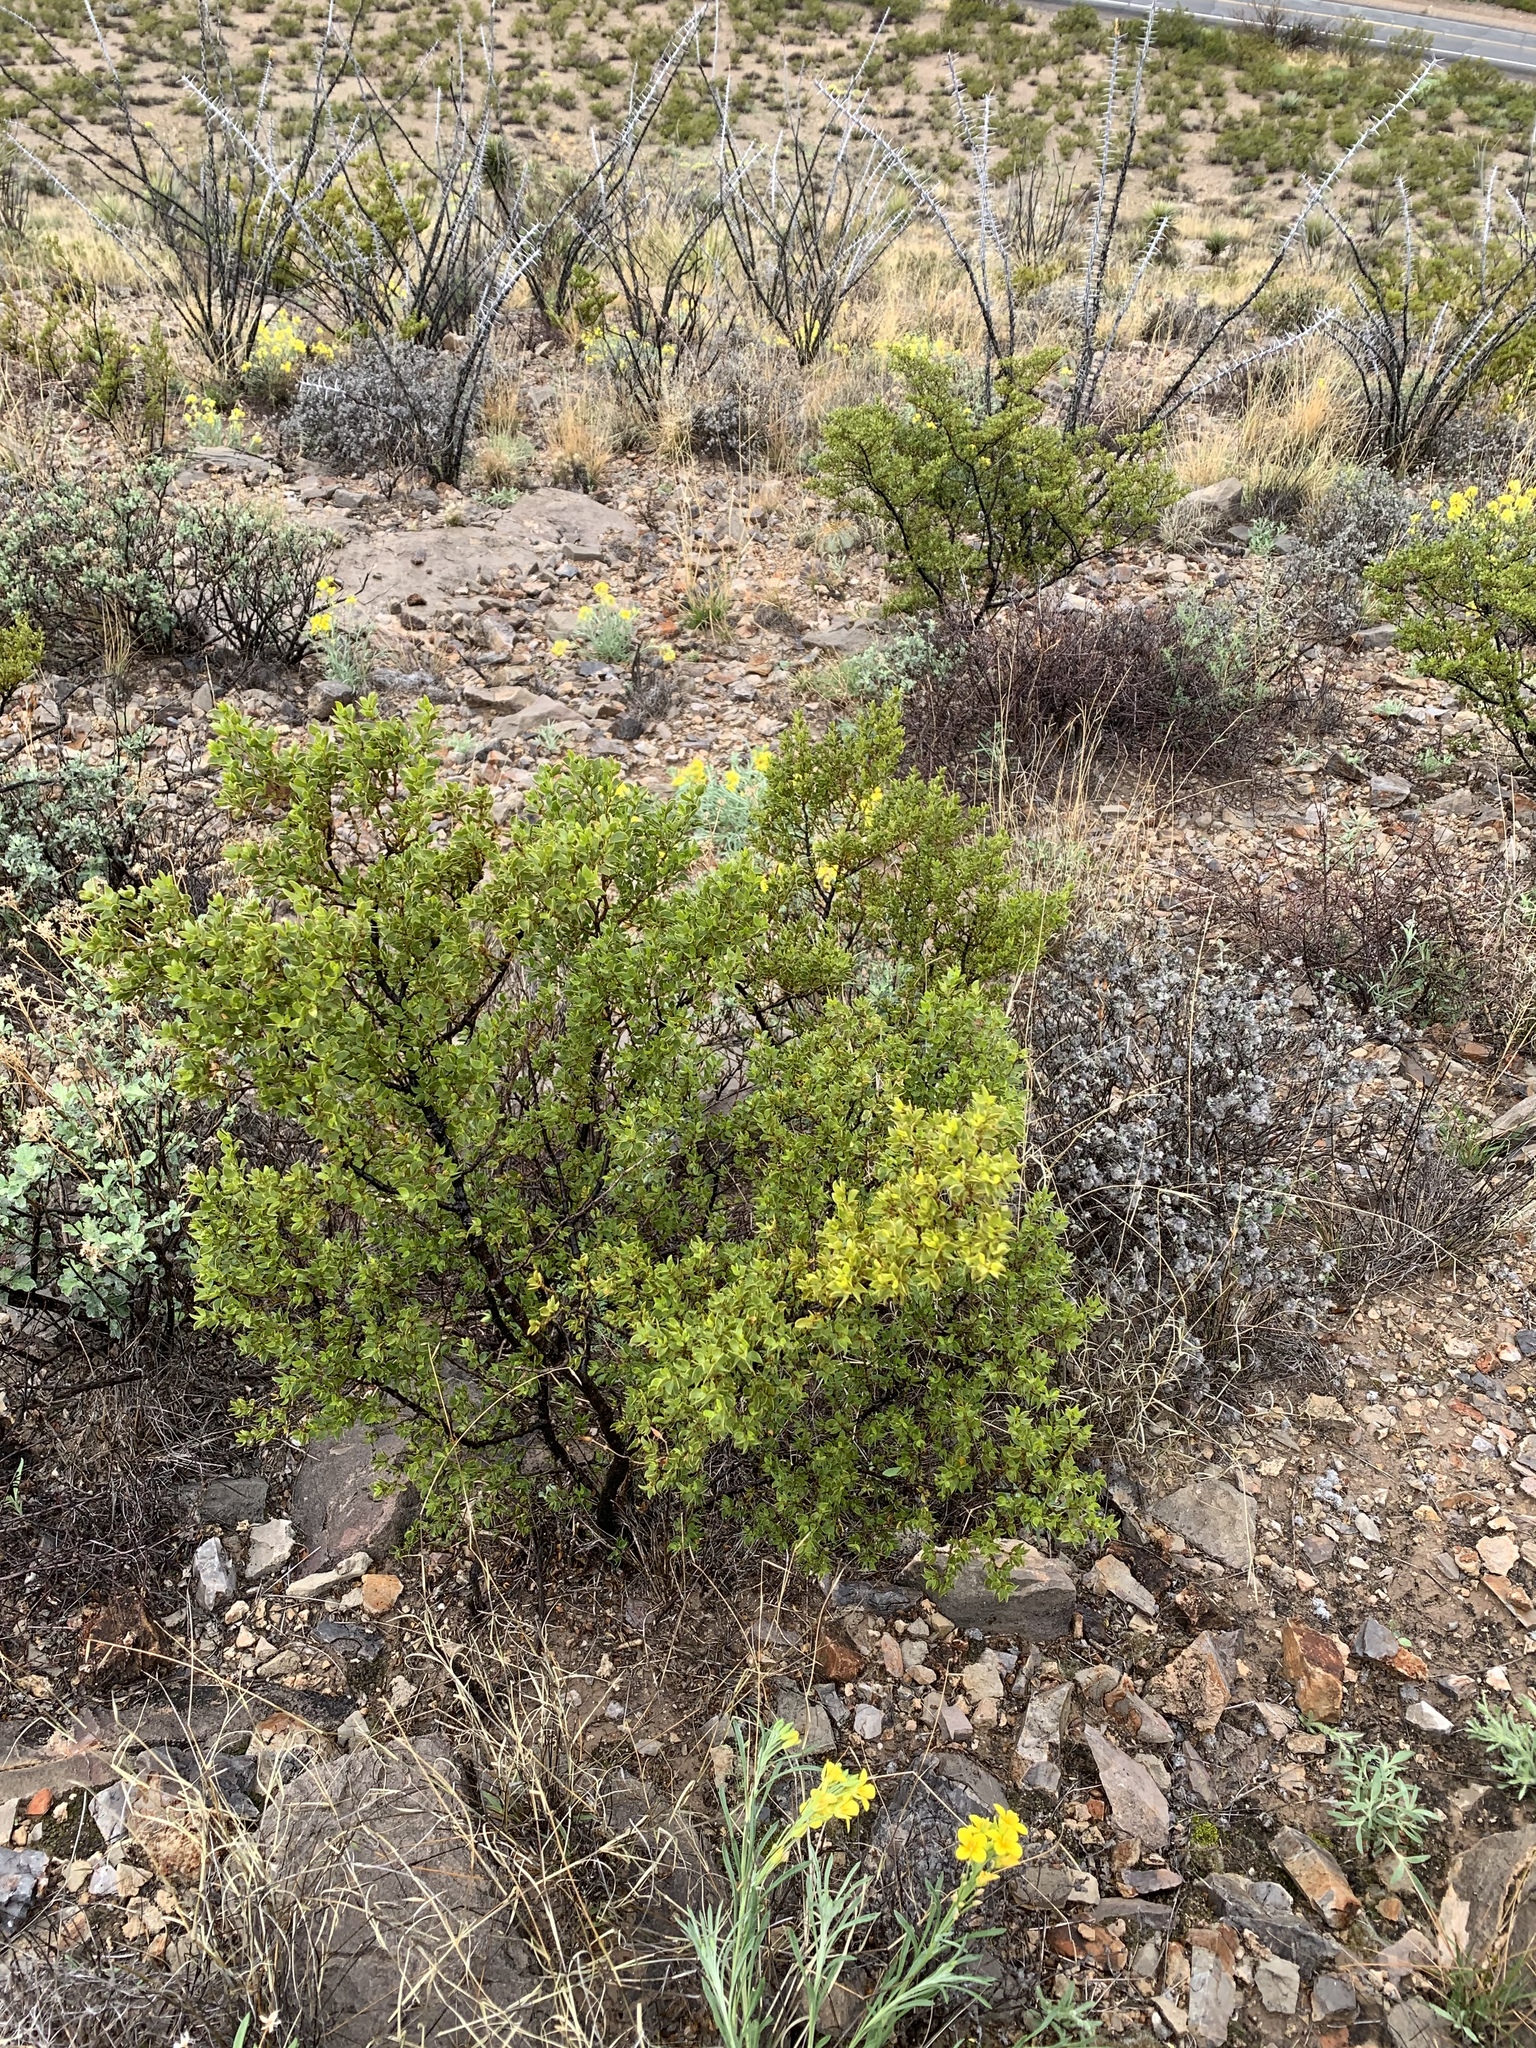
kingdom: Plantae
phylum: Tracheophyta
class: Magnoliopsida
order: Zygophyllales
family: Zygophyllaceae
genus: Larrea
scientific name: Larrea tridentata
